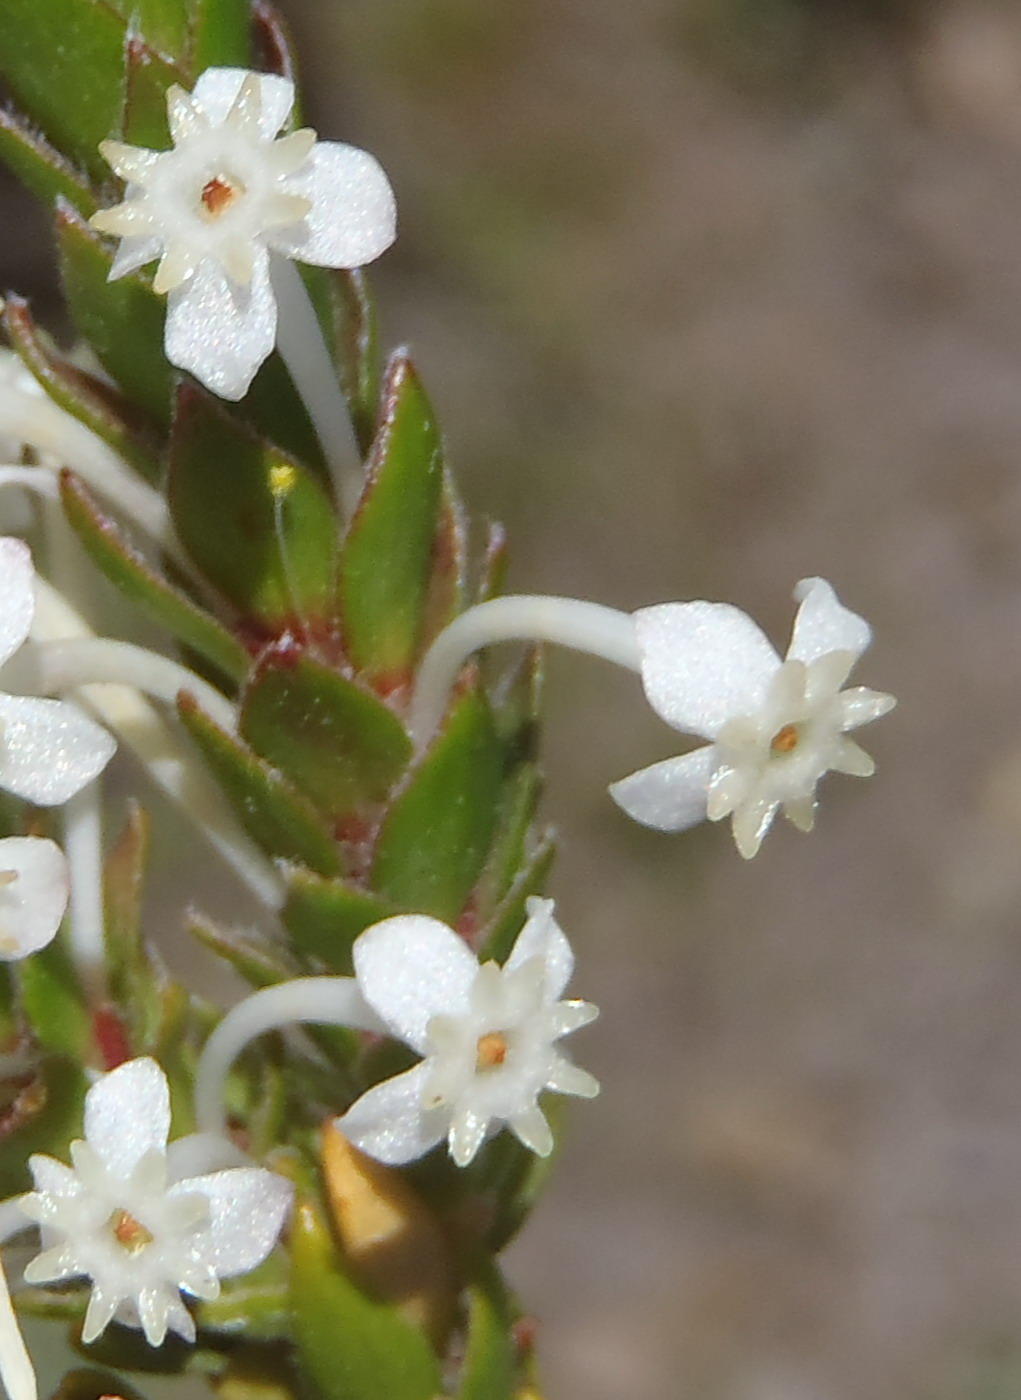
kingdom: Plantae
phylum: Tracheophyta
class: Magnoliopsida
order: Malvales
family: Thymelaeaceae
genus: Struthiola
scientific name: Struthiola hirsuta
